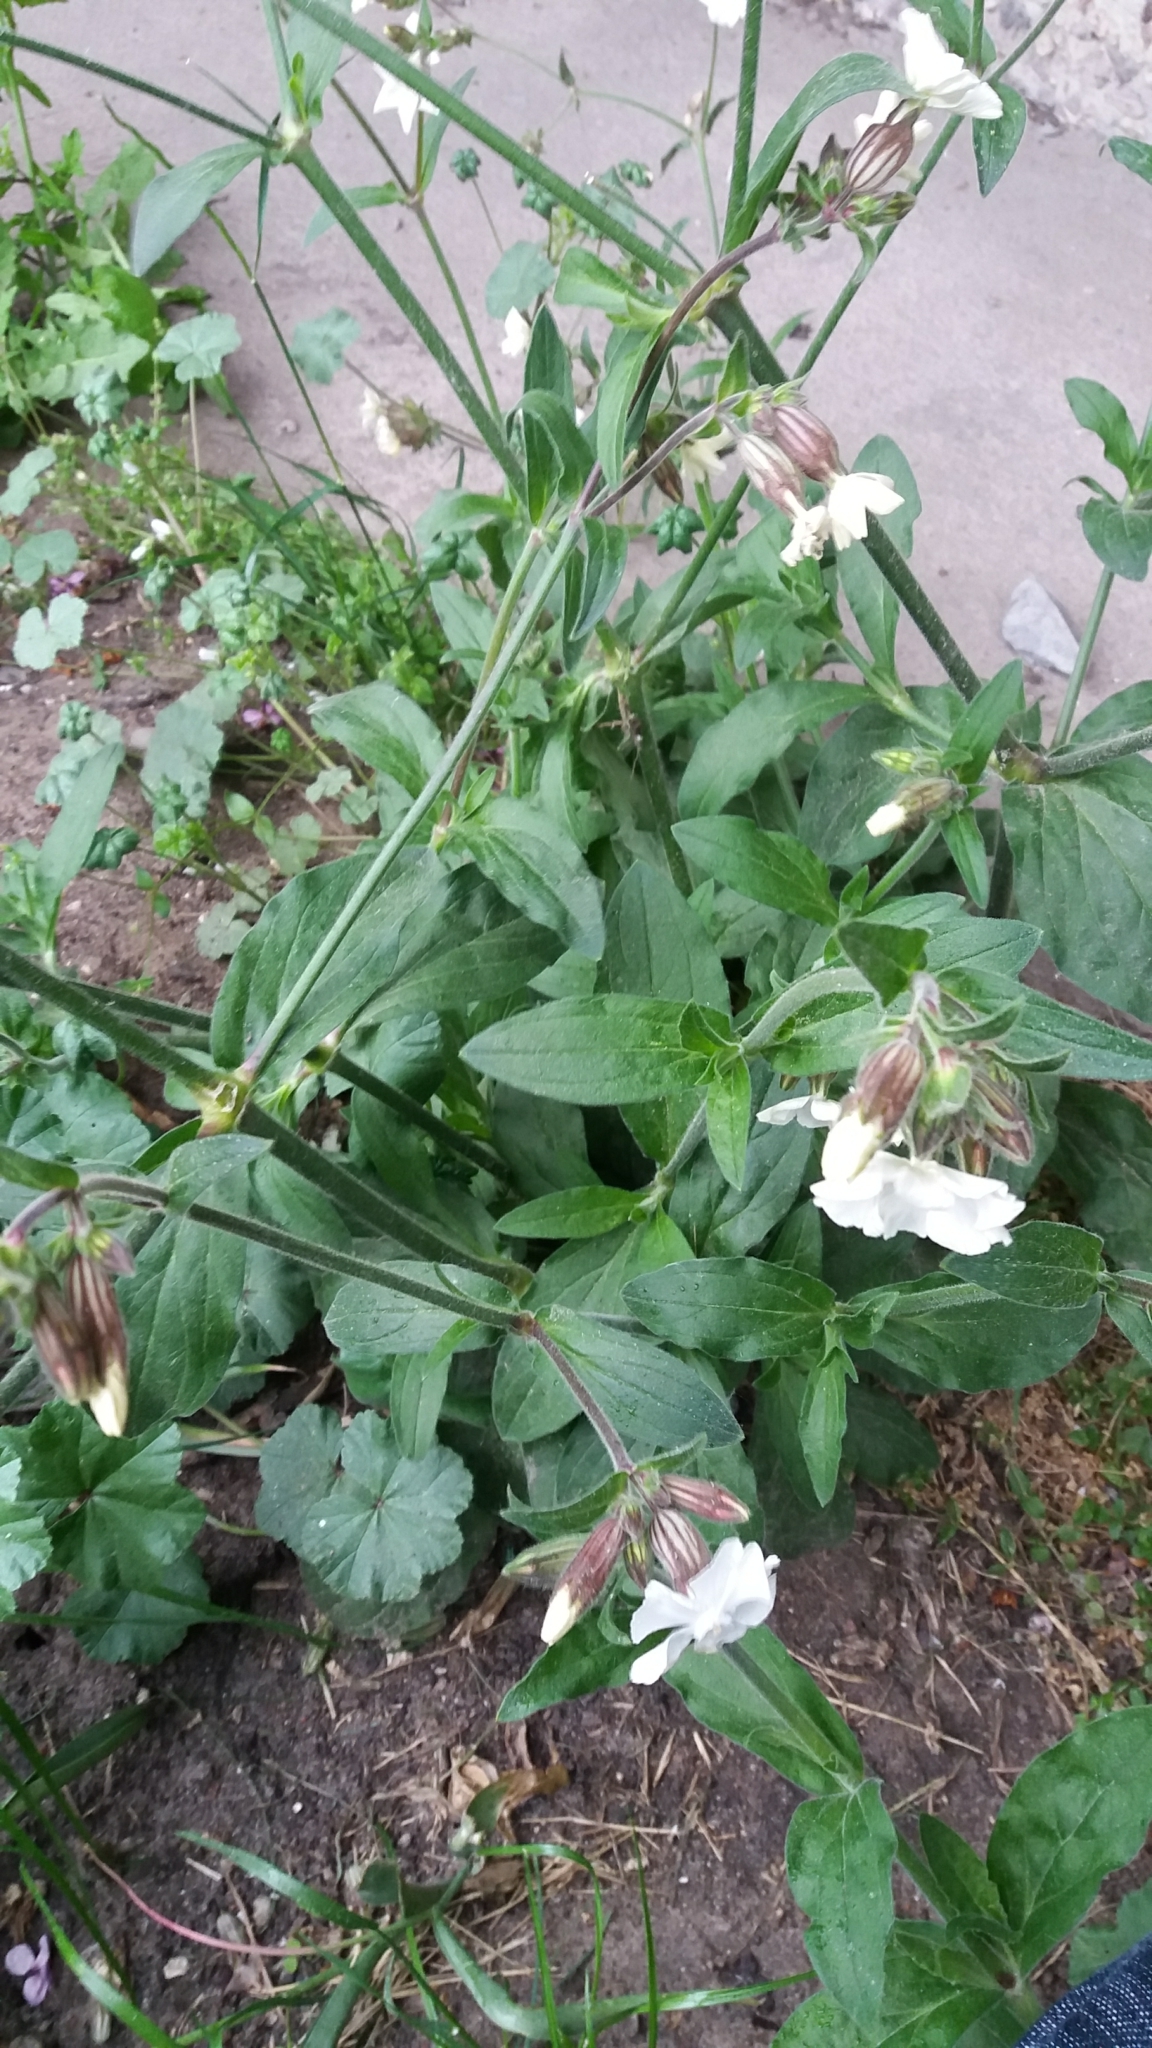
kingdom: Plantae
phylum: Tracheophyta
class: Magnoliopsida
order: Caryophyllales
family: Caryophyllaceae
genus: Silene
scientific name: Silene latifolia
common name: White campion
